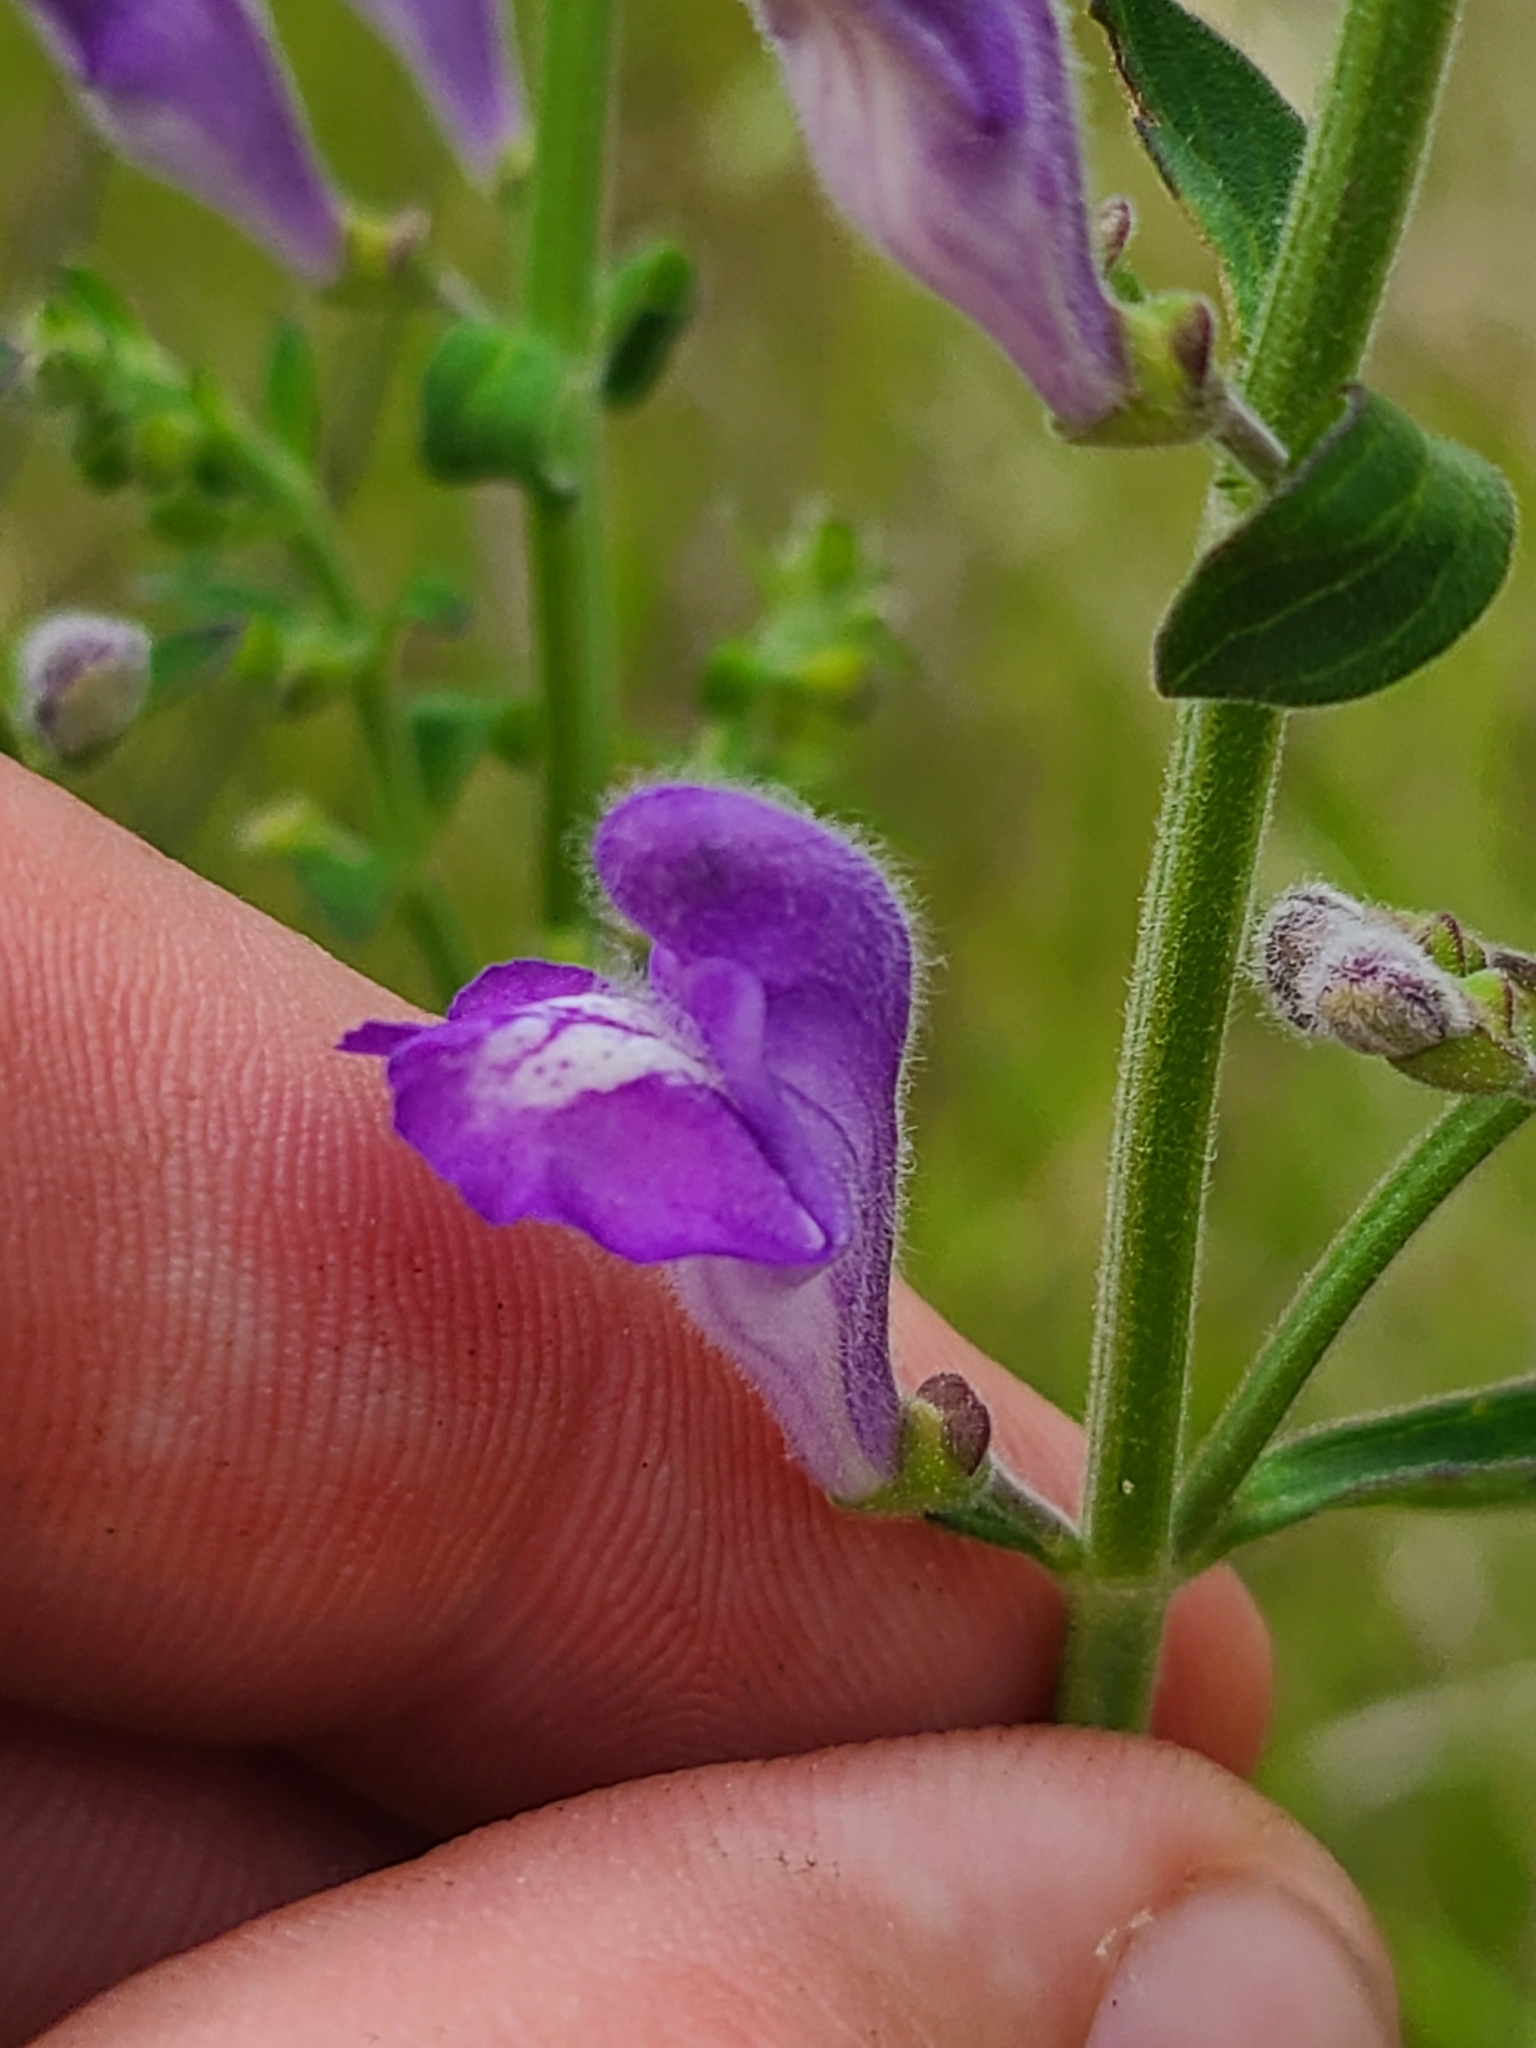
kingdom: Plantae
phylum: Tracheophyta
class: Magnoliopsida
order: Lamiales
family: Lamiaceae
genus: Scutellaria
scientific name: Scutellaria integrifolia
